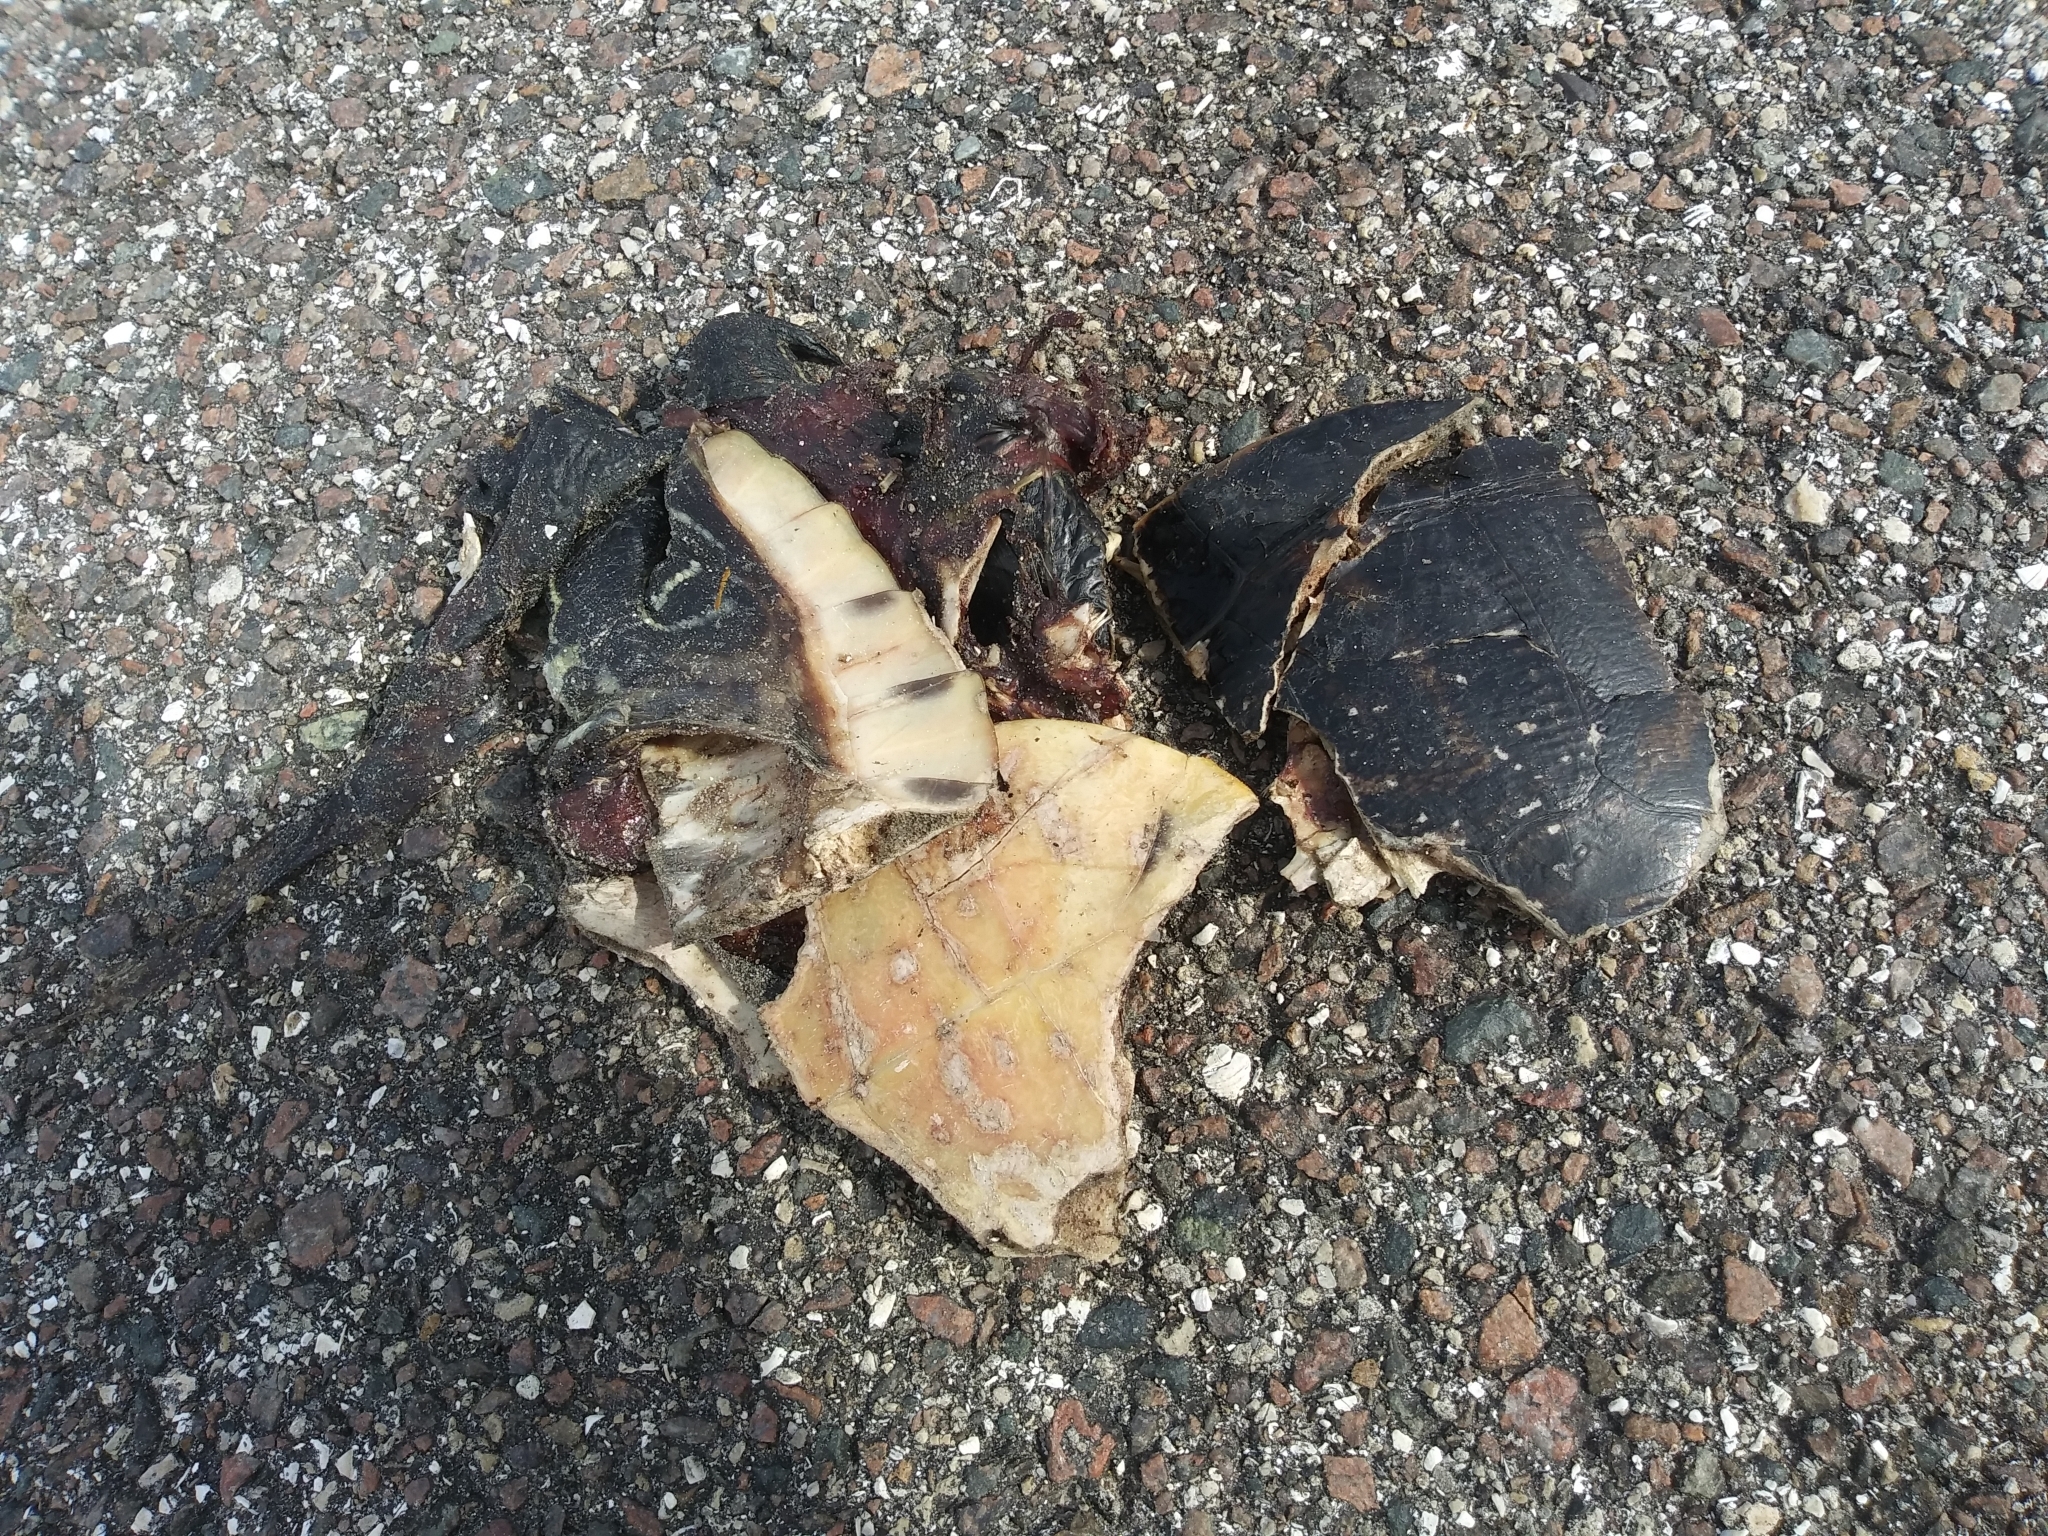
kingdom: Animalia
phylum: Chordata
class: Testudines
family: Emydidae
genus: Pseudemys
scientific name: Pseudemys nelsoni
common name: Florida red-bellied turtle
